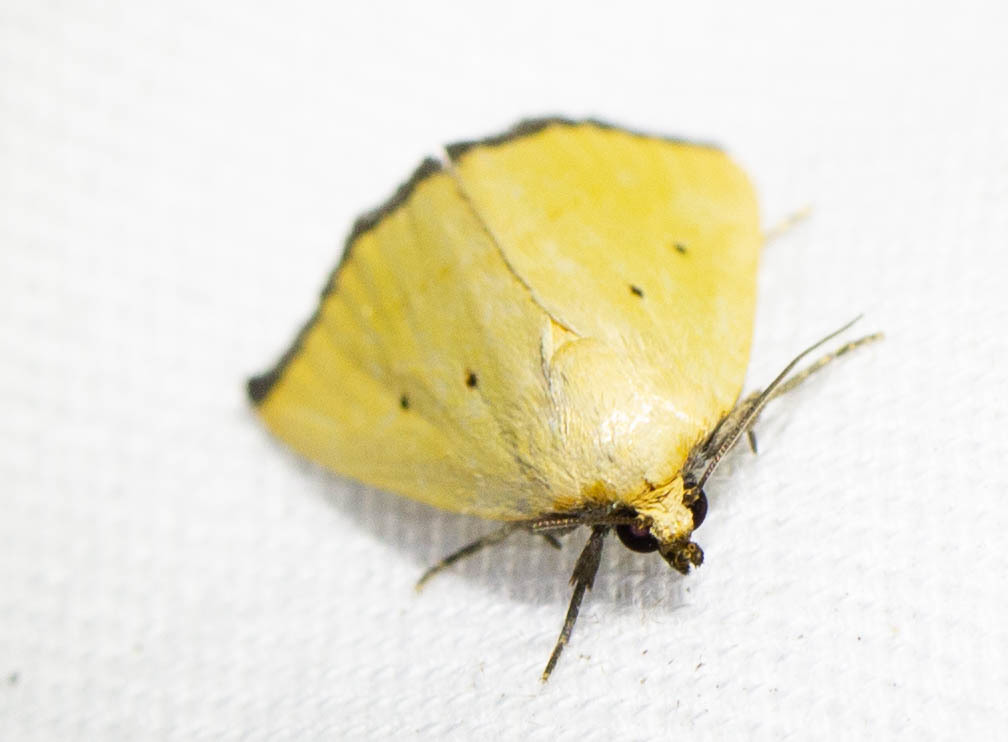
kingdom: Animalia
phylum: Arthropoda
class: Insecta
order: Lepidoptera
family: Noctuidae
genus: Marimatha
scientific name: Marimatha nigrofimbria
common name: Black-bordered lemon moth
